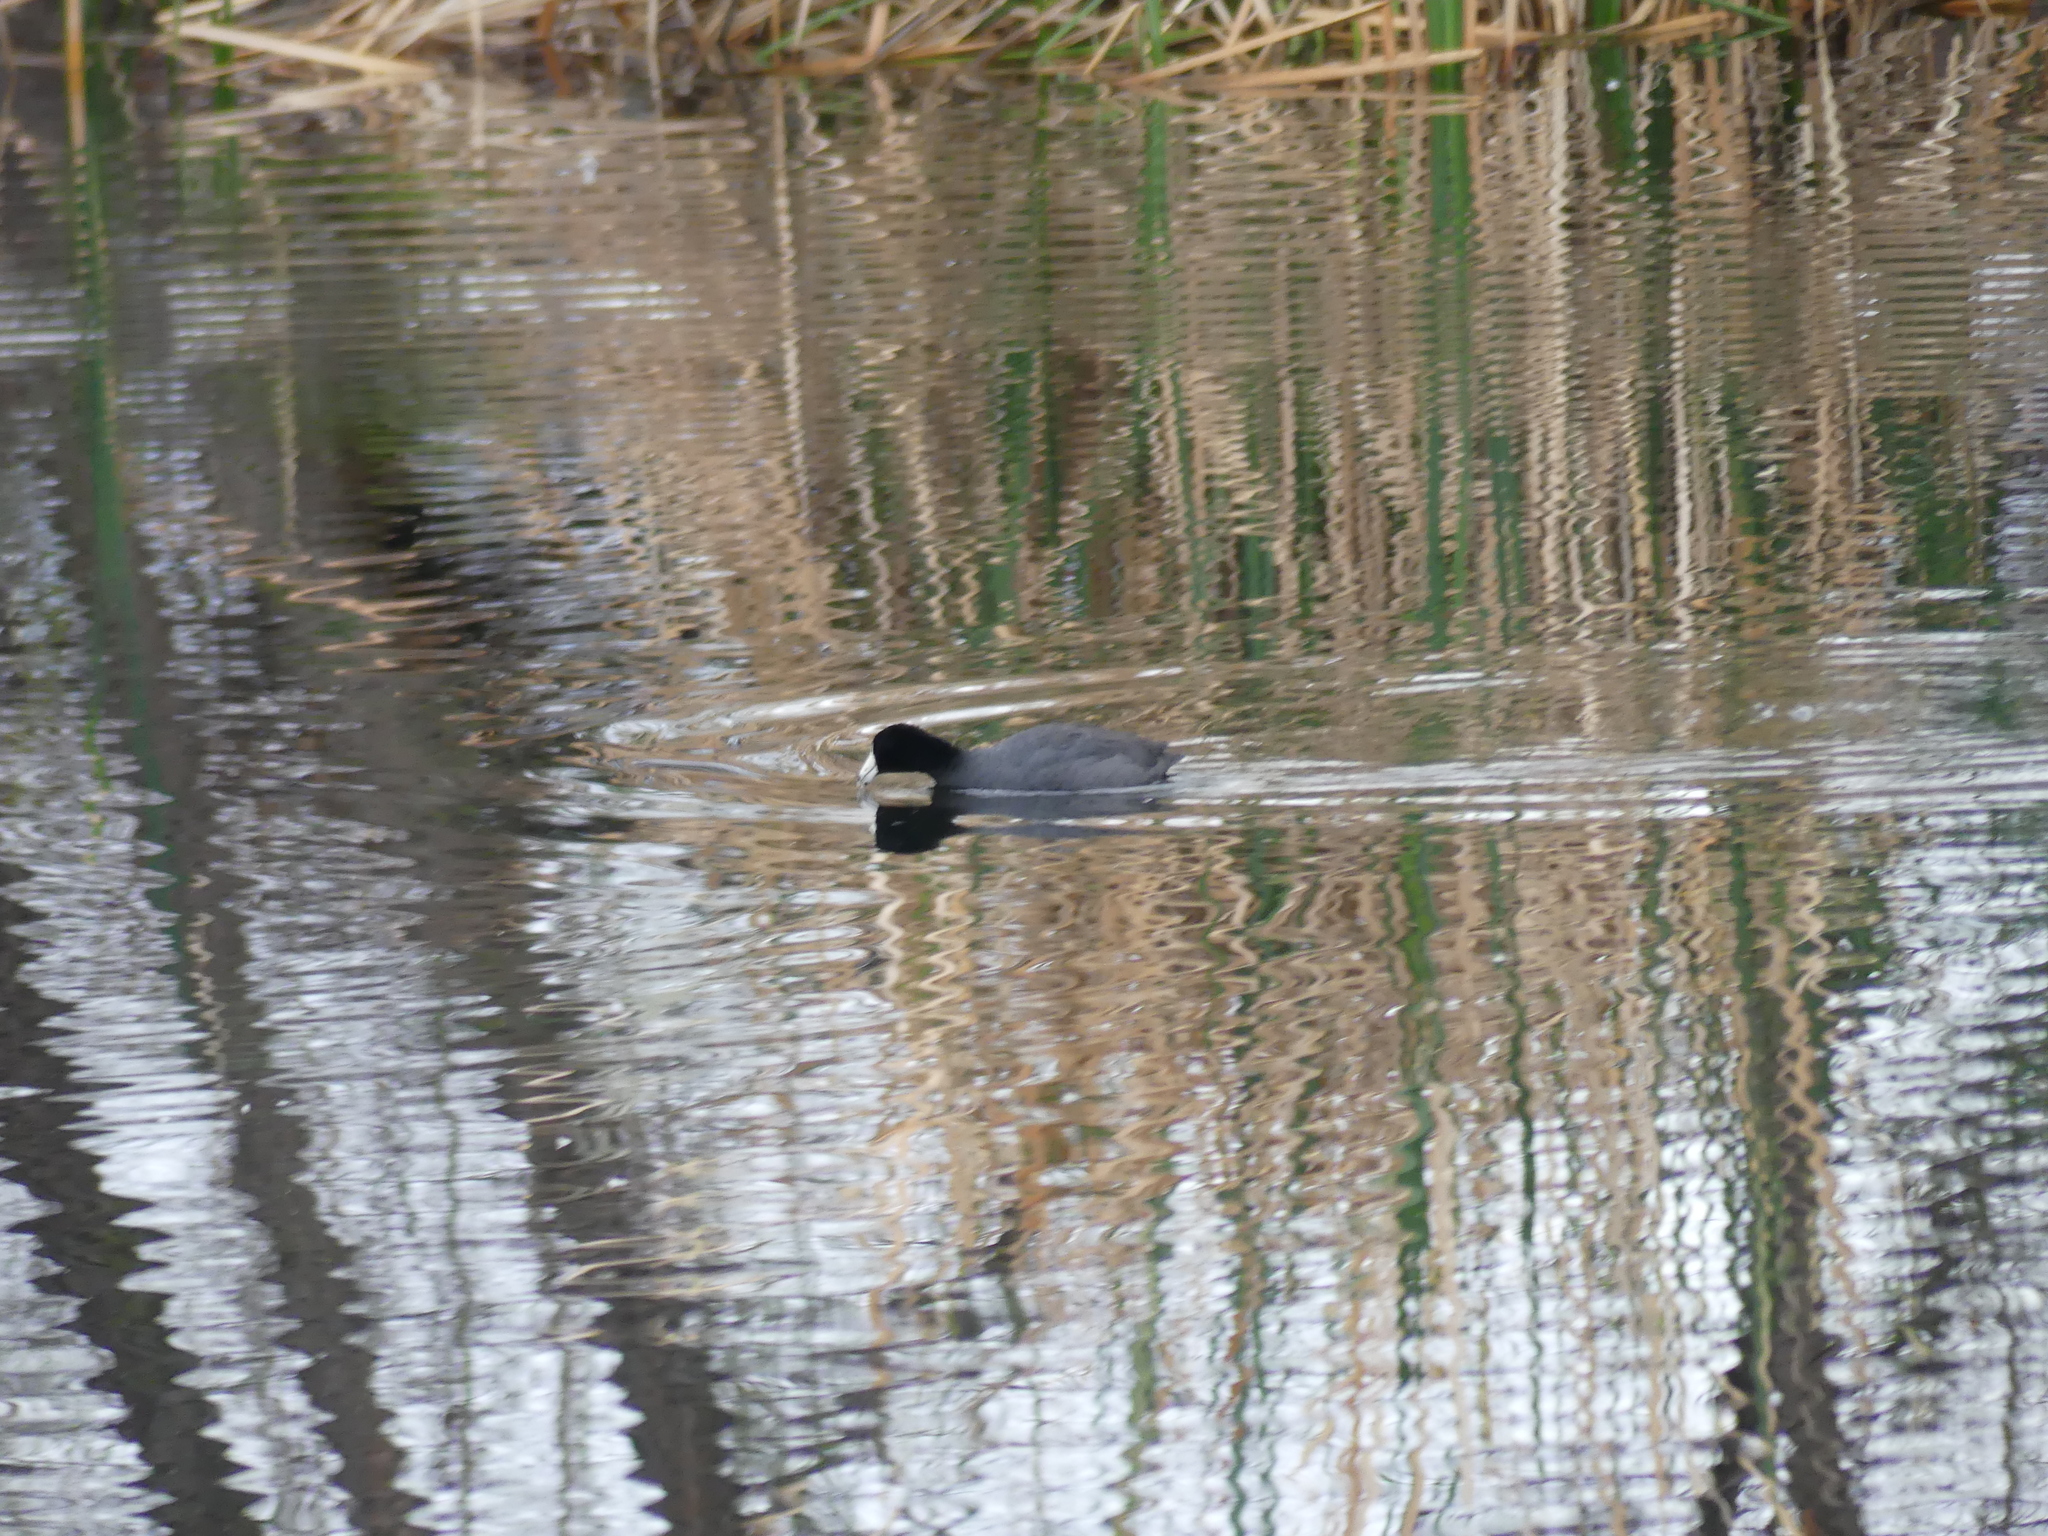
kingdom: Animalia
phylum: Chordata
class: Aves
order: Gruiformes
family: Rallidae
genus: Fulica
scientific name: Fulica americana
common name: American coot
